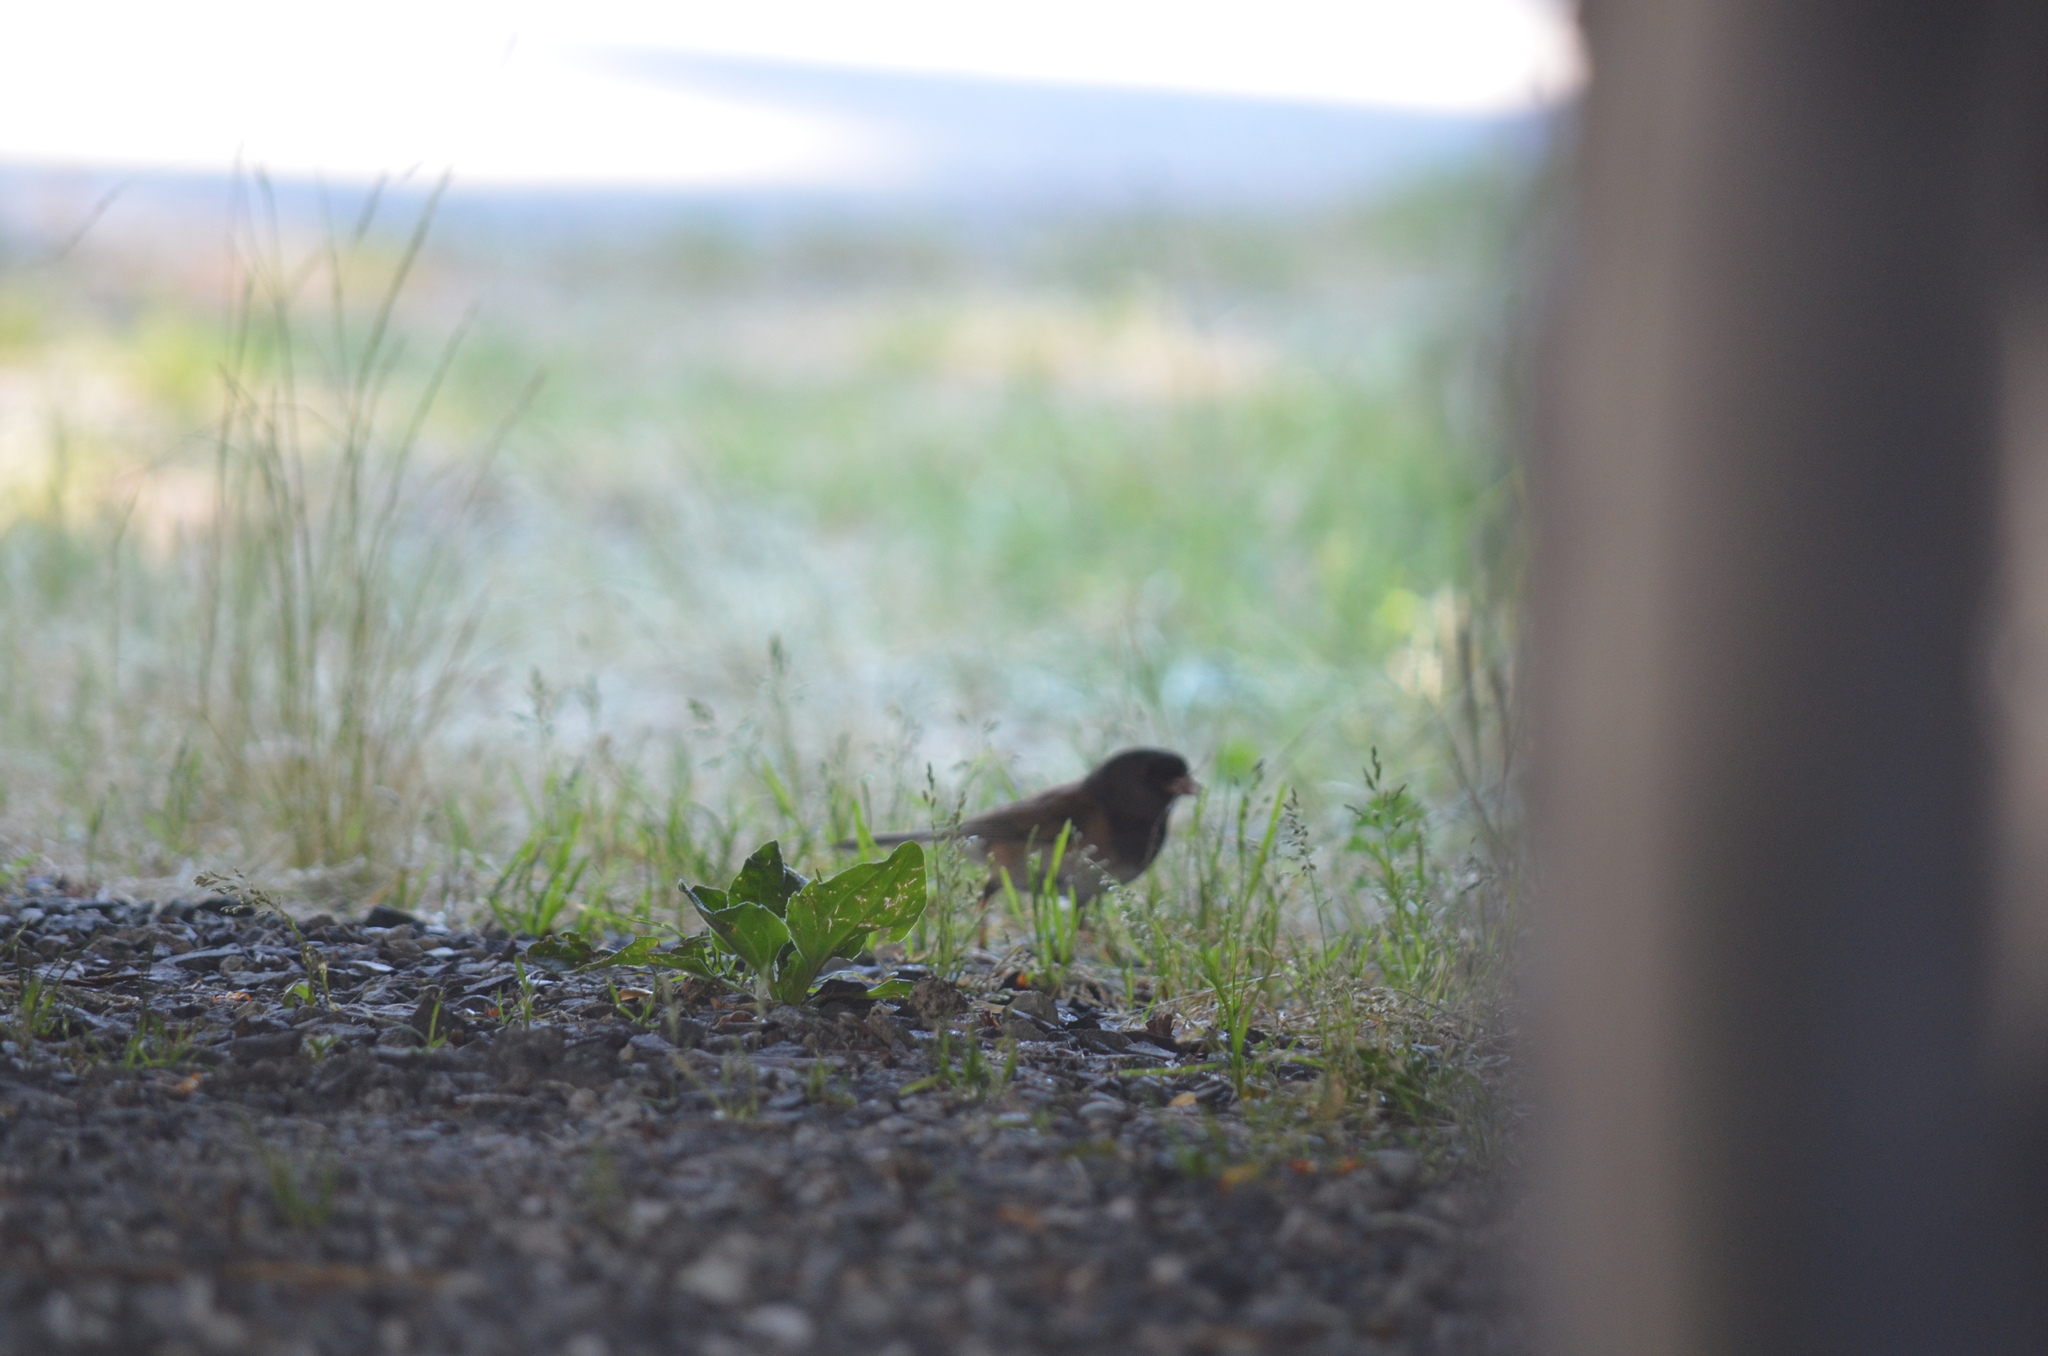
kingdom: Animalia
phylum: Chordata
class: Aves
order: Passeriformes
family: Passerellidae
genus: Junco
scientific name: Junco hyemalis
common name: Dark-eyed junco
